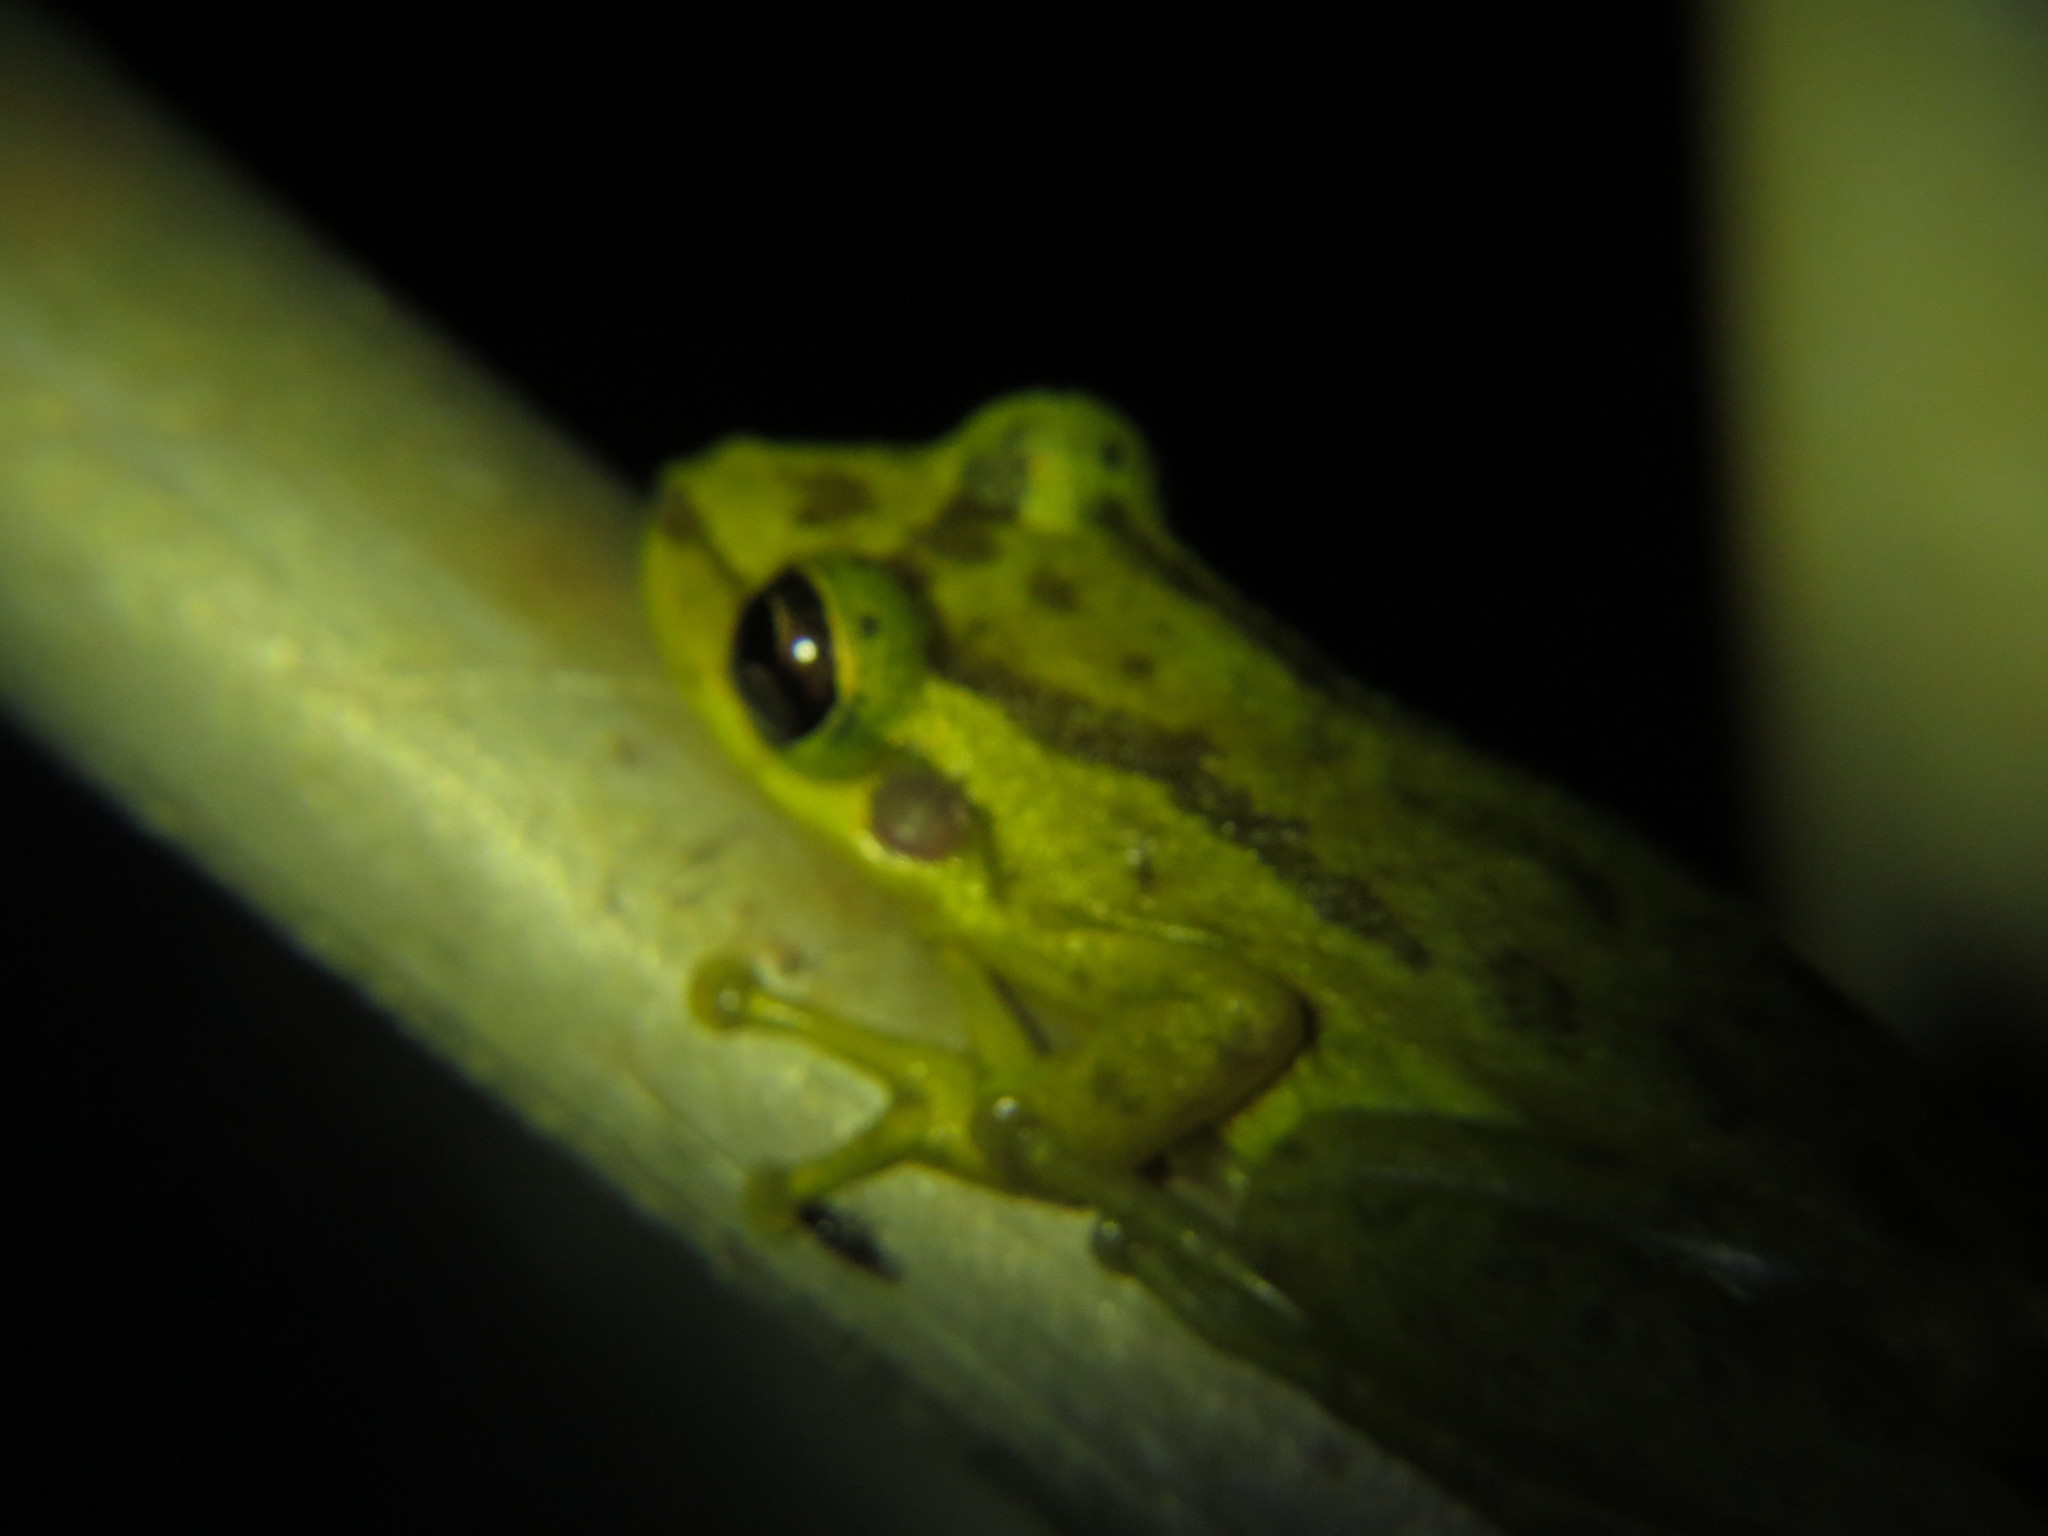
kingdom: Animalia
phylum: Chordata
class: Amphibia
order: Anura
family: Hylidae
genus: Scinax
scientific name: Scinax ruber
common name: Red snouted treefrog
